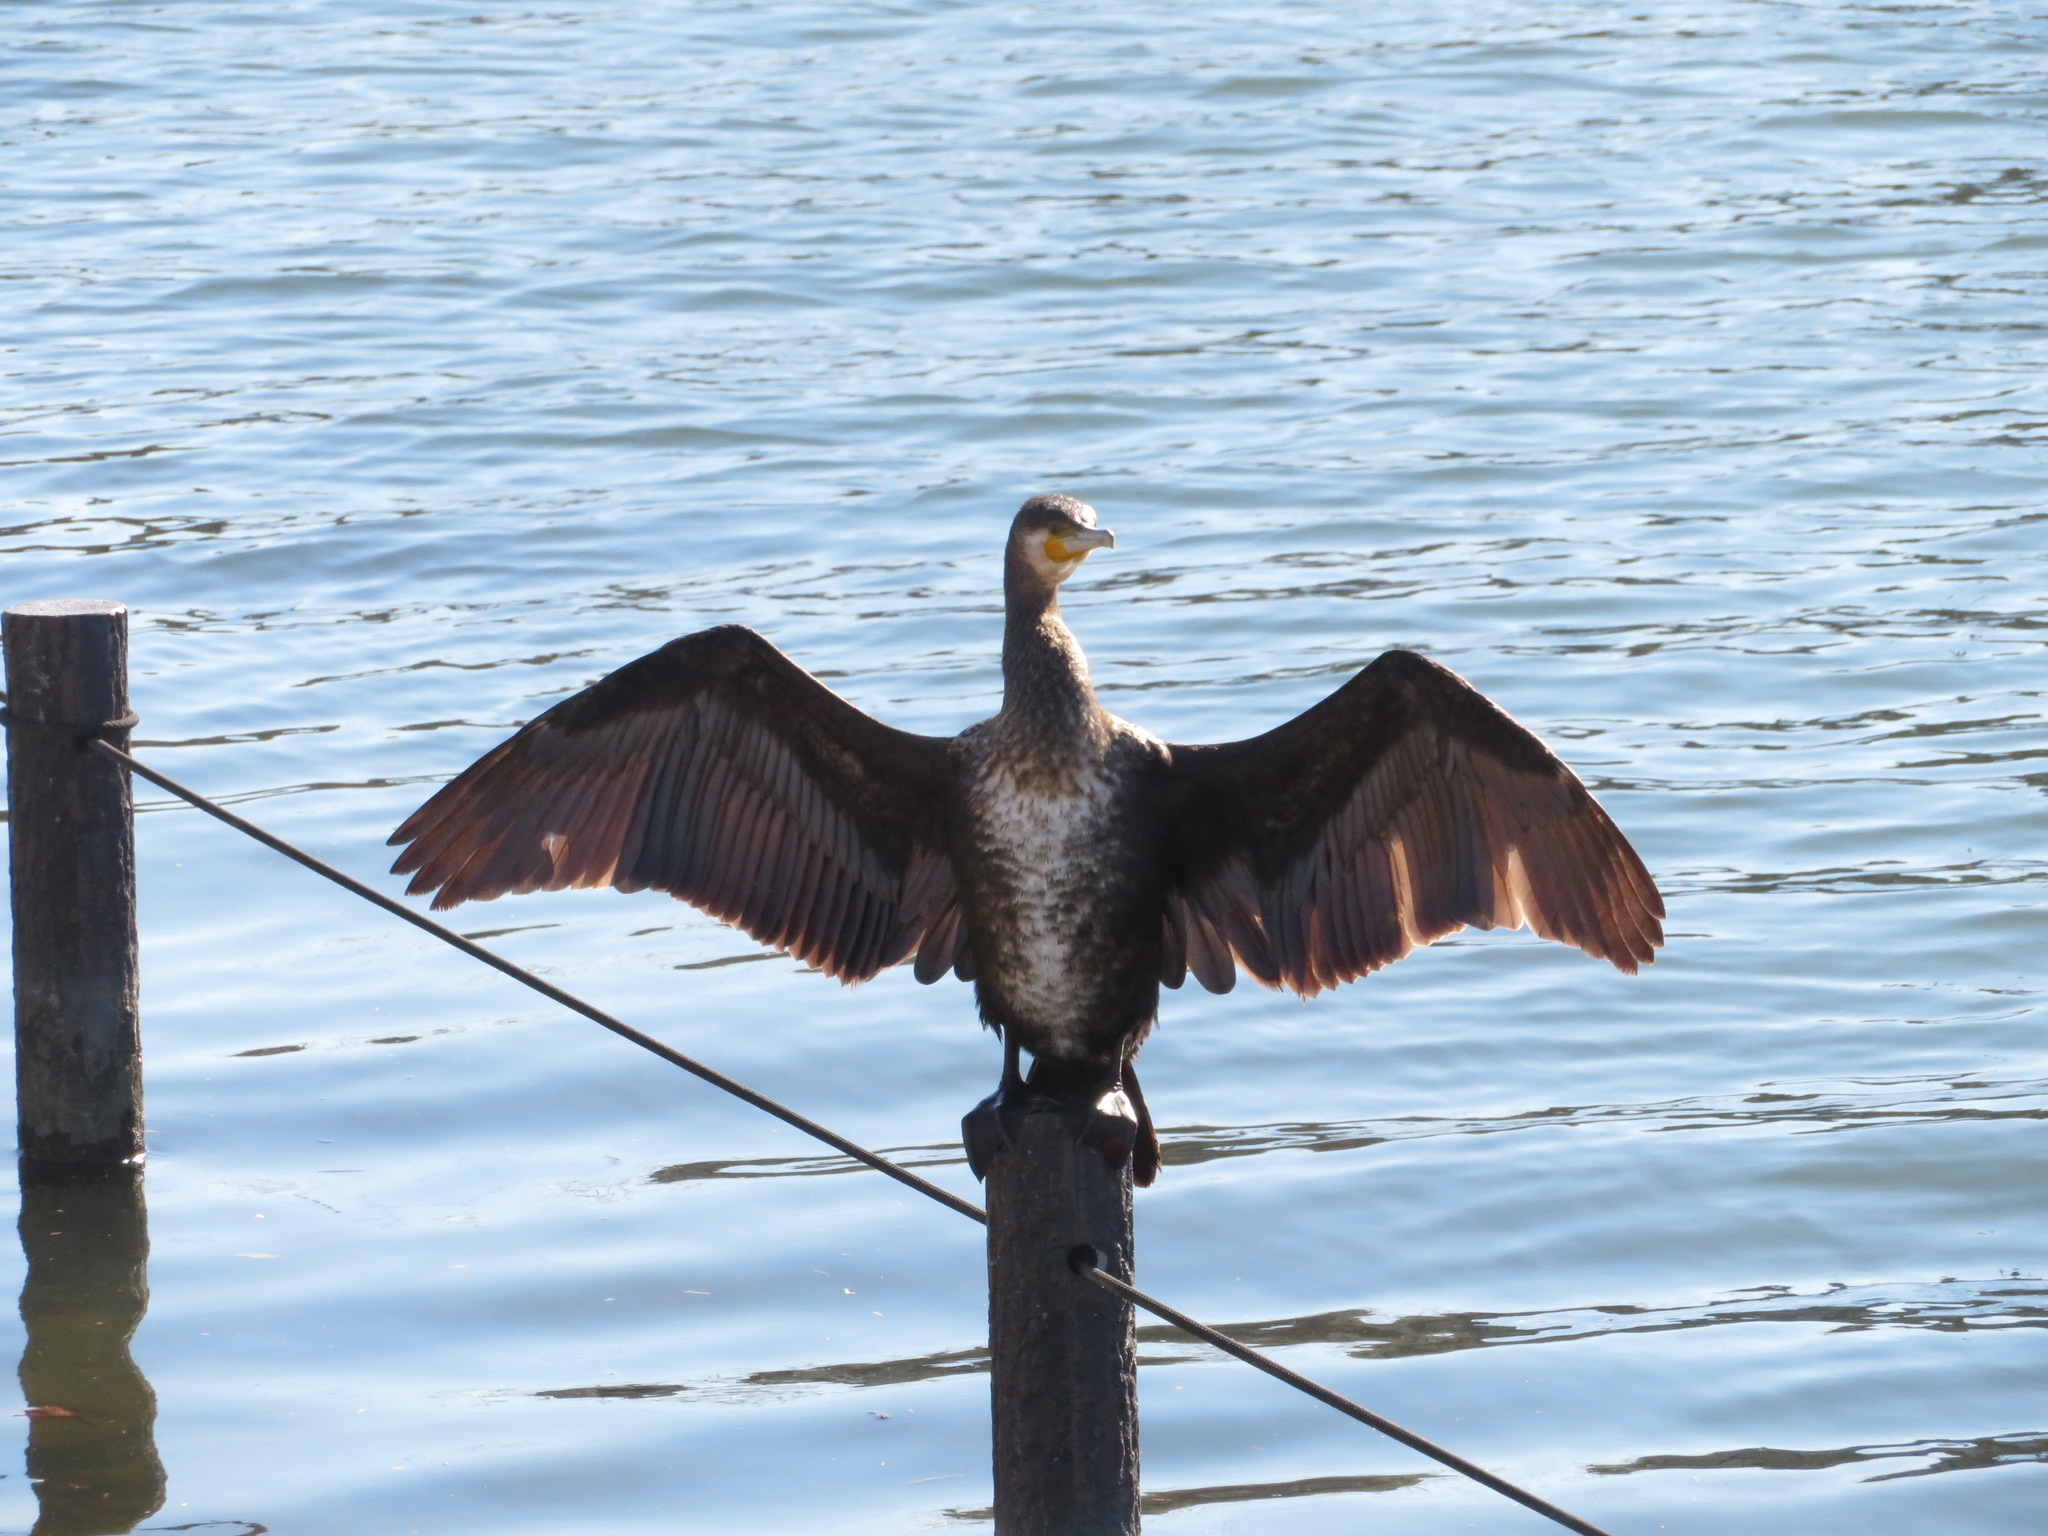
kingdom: Animalia
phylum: Chordata
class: Aves
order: Suliformes
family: Phalacrocoracidae
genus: Phalacrocorax
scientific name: Phalacrocorax carbo
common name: Great cormorant
